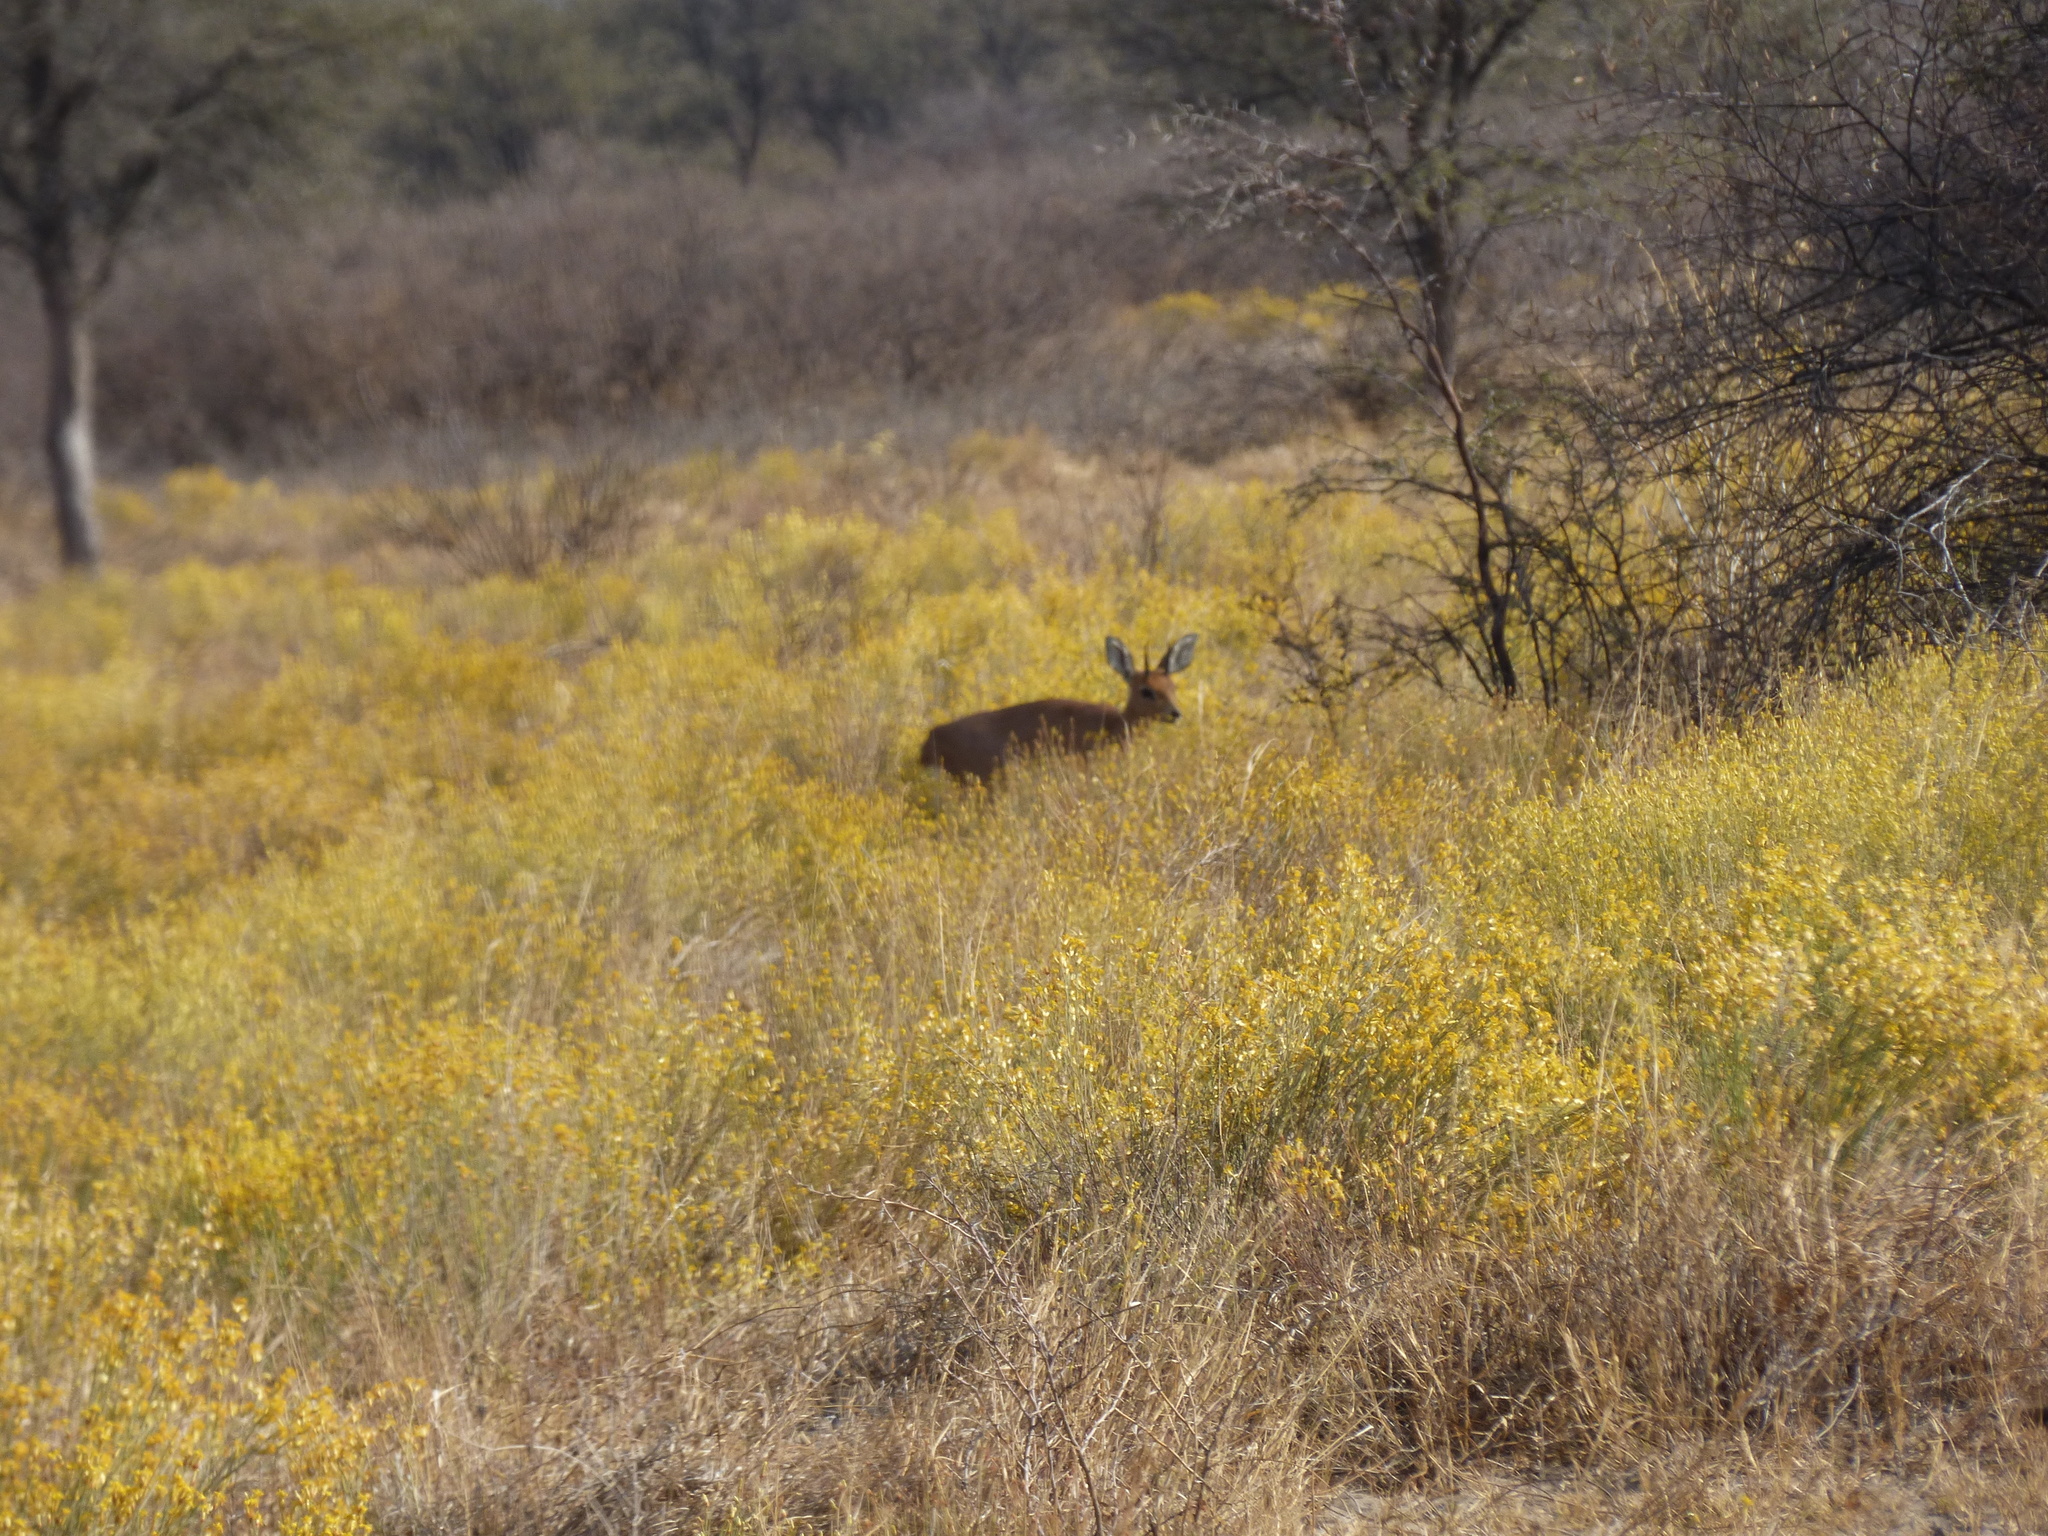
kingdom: Animalia
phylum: Chordata
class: Mammalia
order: Artiodactyla
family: Bovidae
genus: Raphicerus
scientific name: Raphicerus campestris
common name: Steenbok
